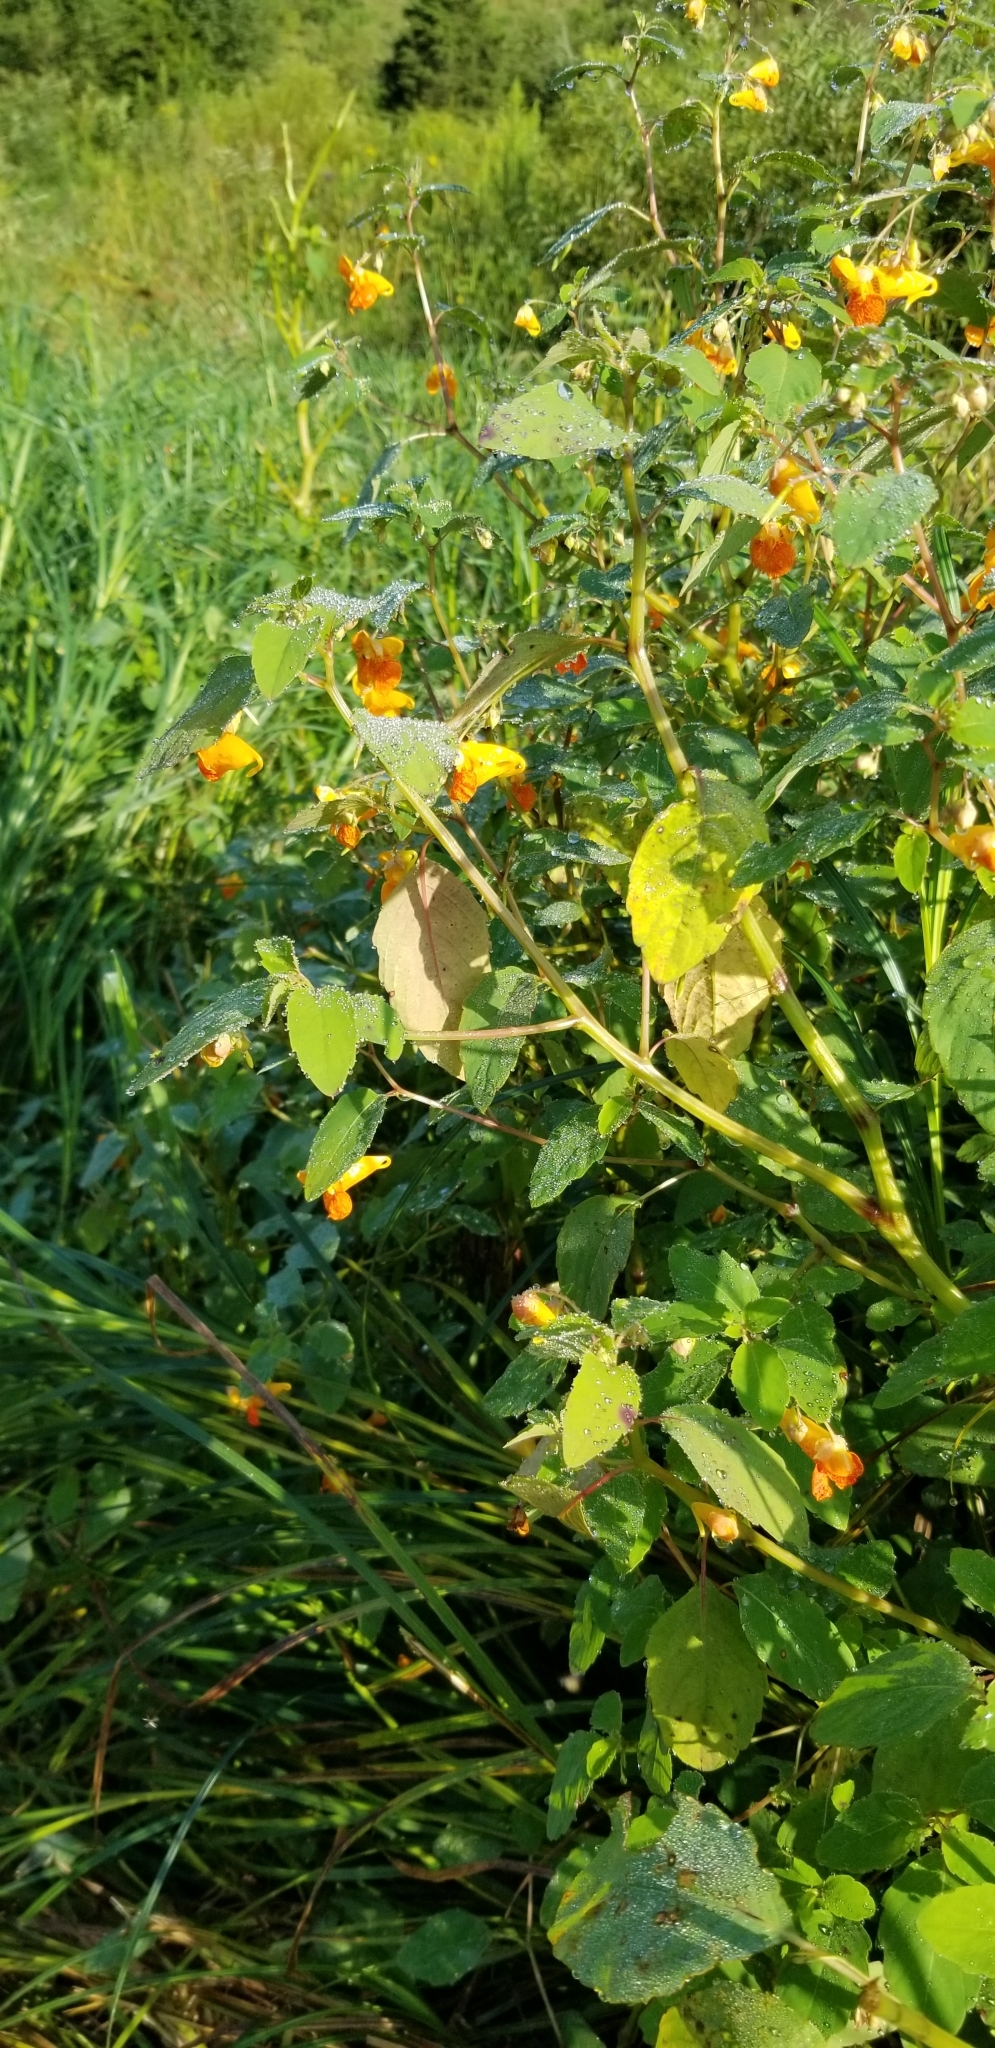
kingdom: Plantae
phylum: Tracheophyta
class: Magnoliopsida
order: Ericales
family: Balsaminaceae
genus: Impatiens
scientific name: Impatiens capensis
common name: Orange balsam
